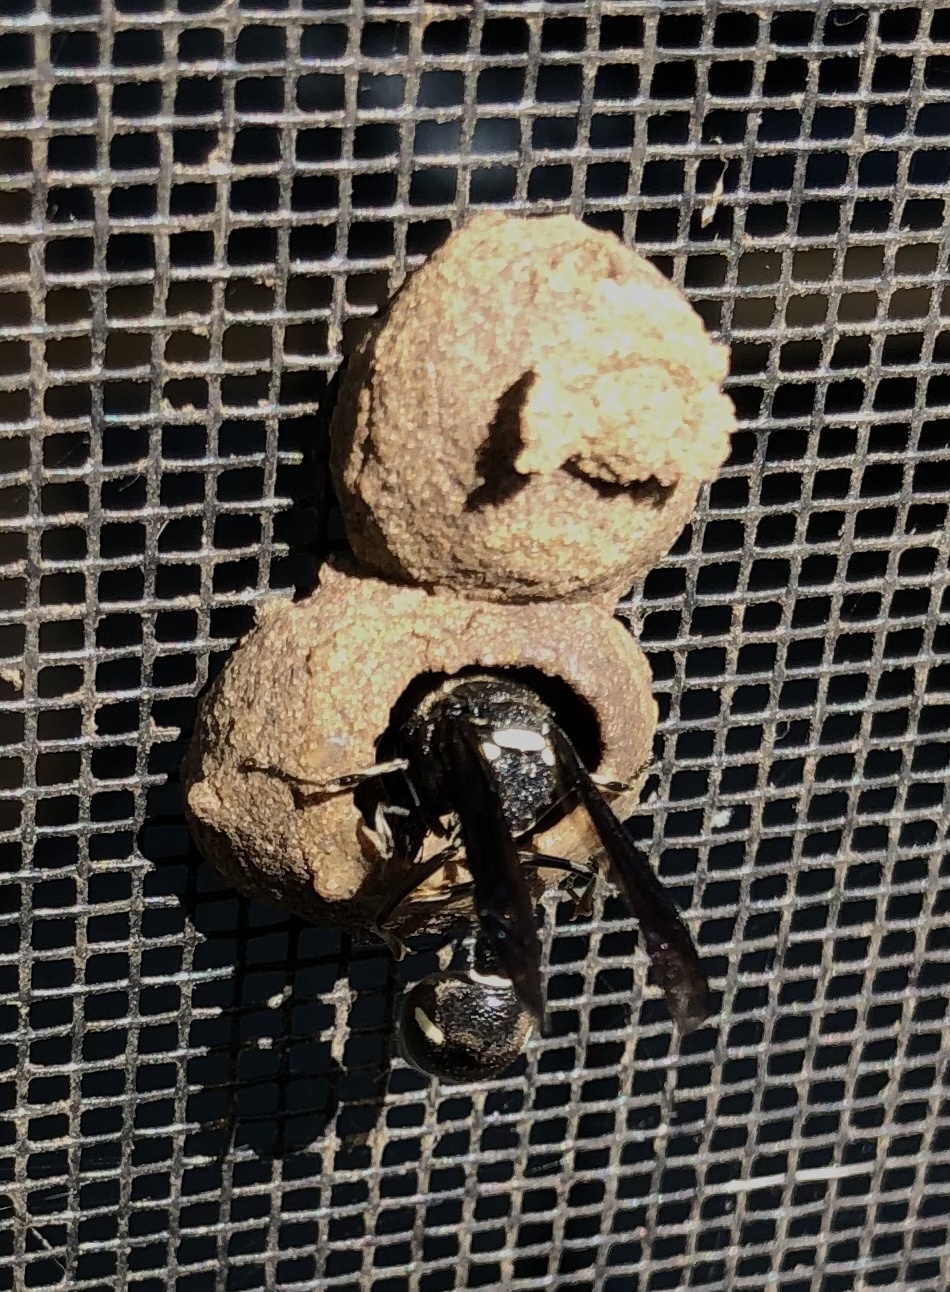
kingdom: Animalia
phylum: Arthropoda
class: Insecta
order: Hymenoptera
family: Vespidae
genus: Eumenes
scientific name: Eumenes fraternus
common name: Fraternal potter wasp
